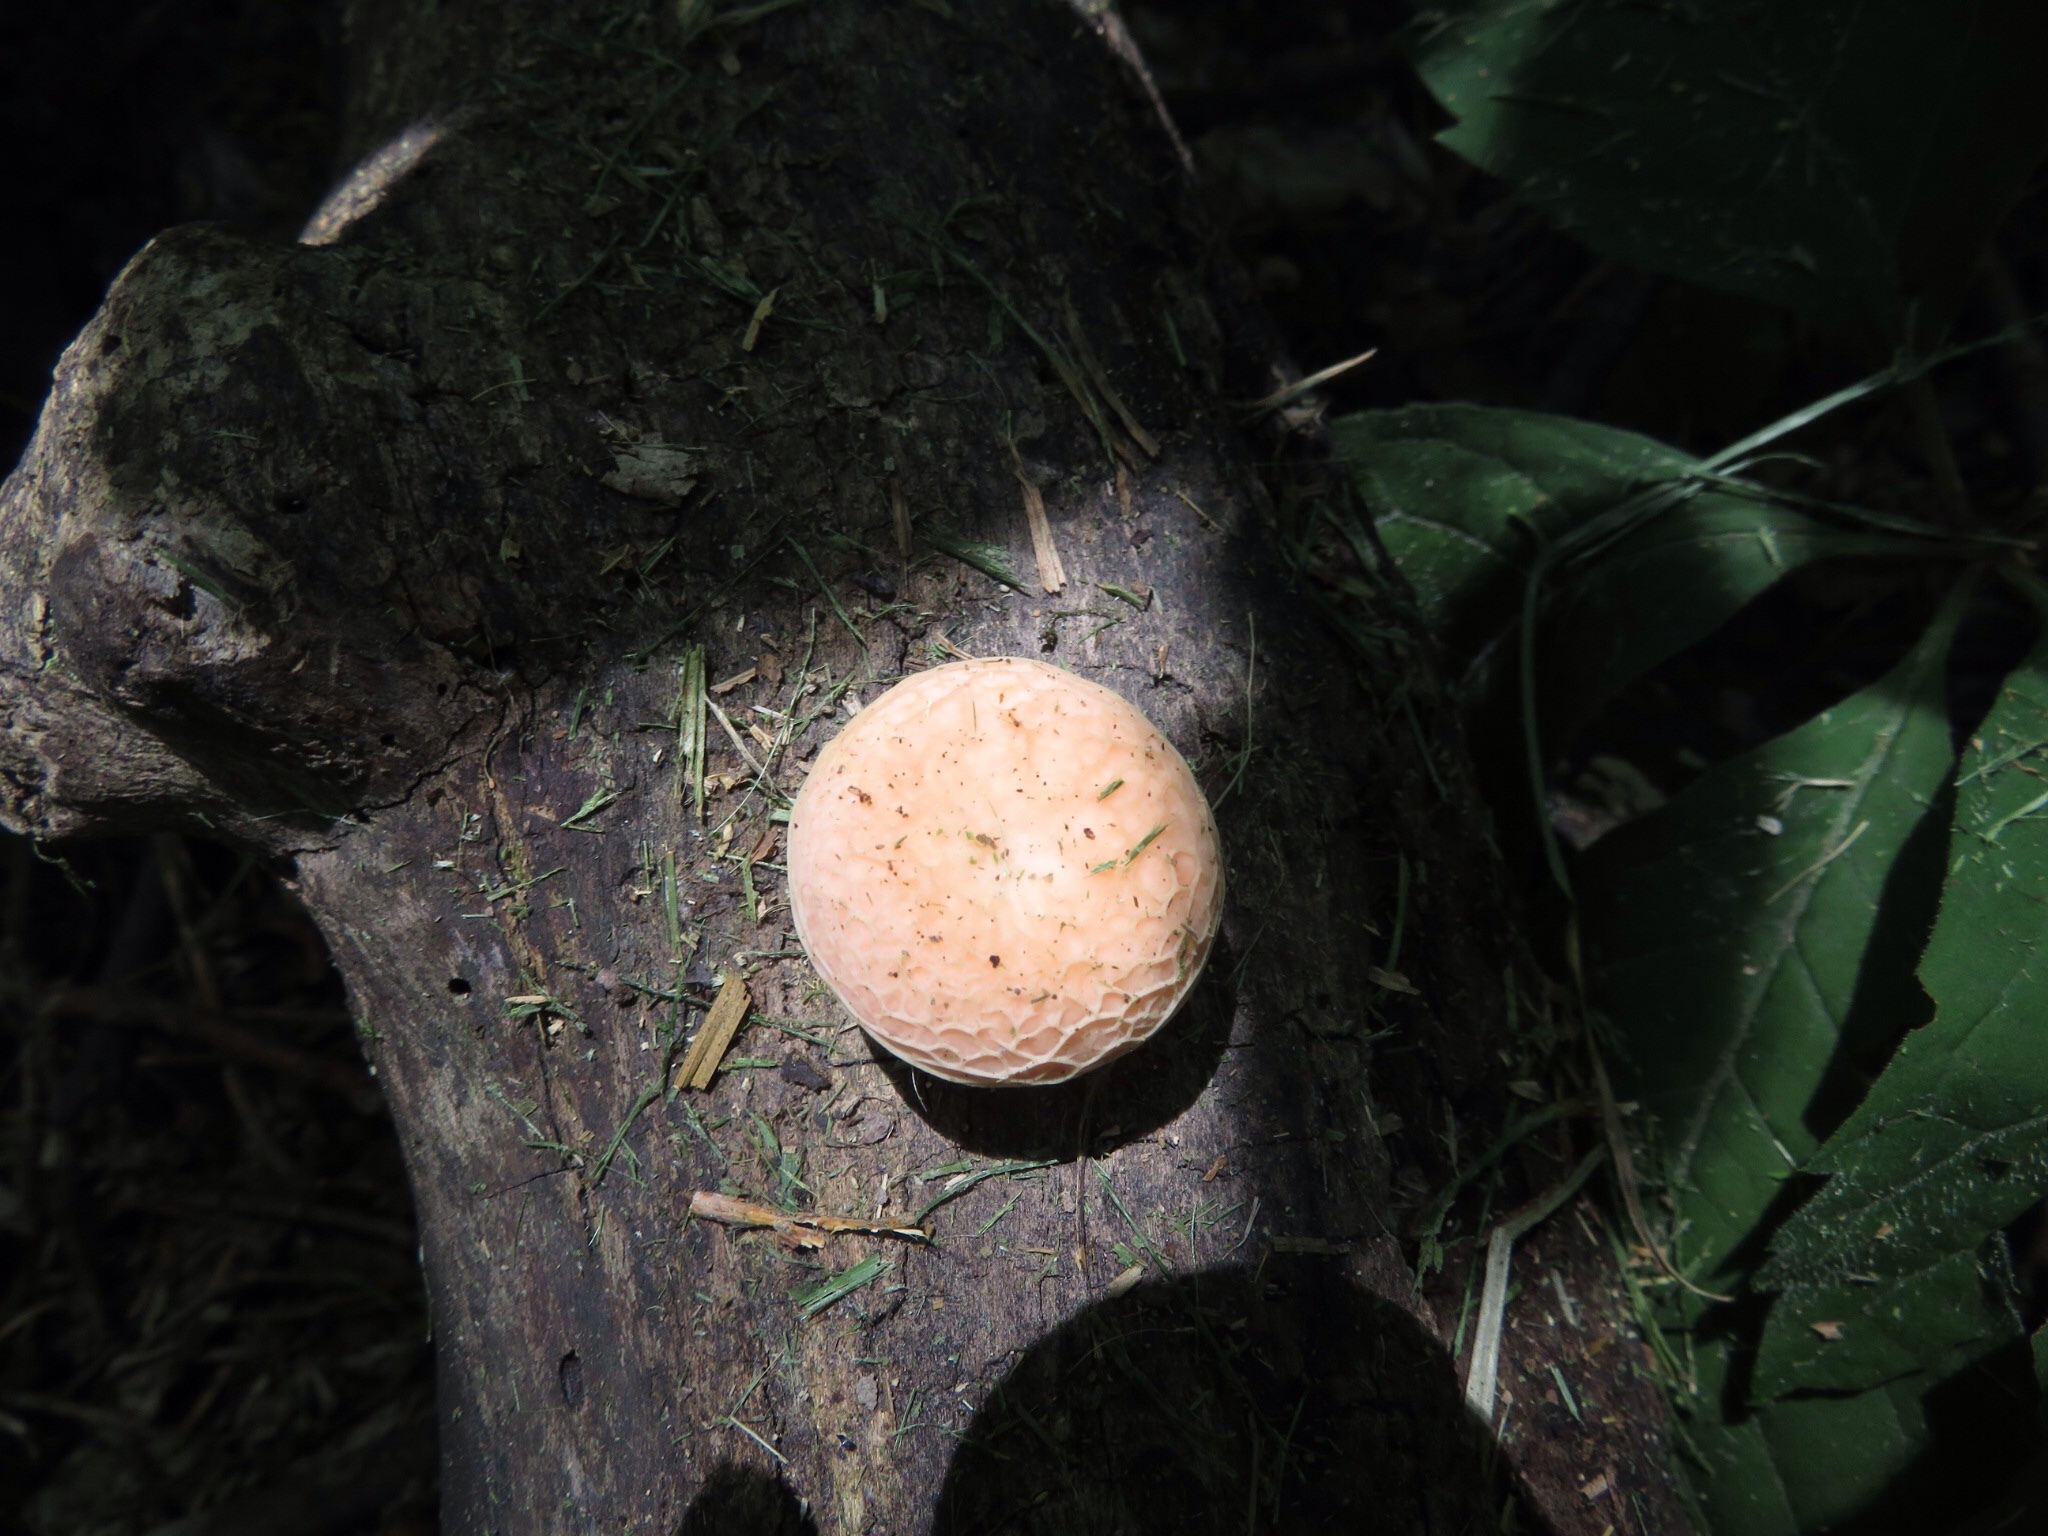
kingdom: Fungi
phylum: Basidiomycota
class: Agaricomycetes
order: Agaricales
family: Physalacriaceae
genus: Rhodotus
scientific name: Rhodotus palmatus
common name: Wrinkled peach
